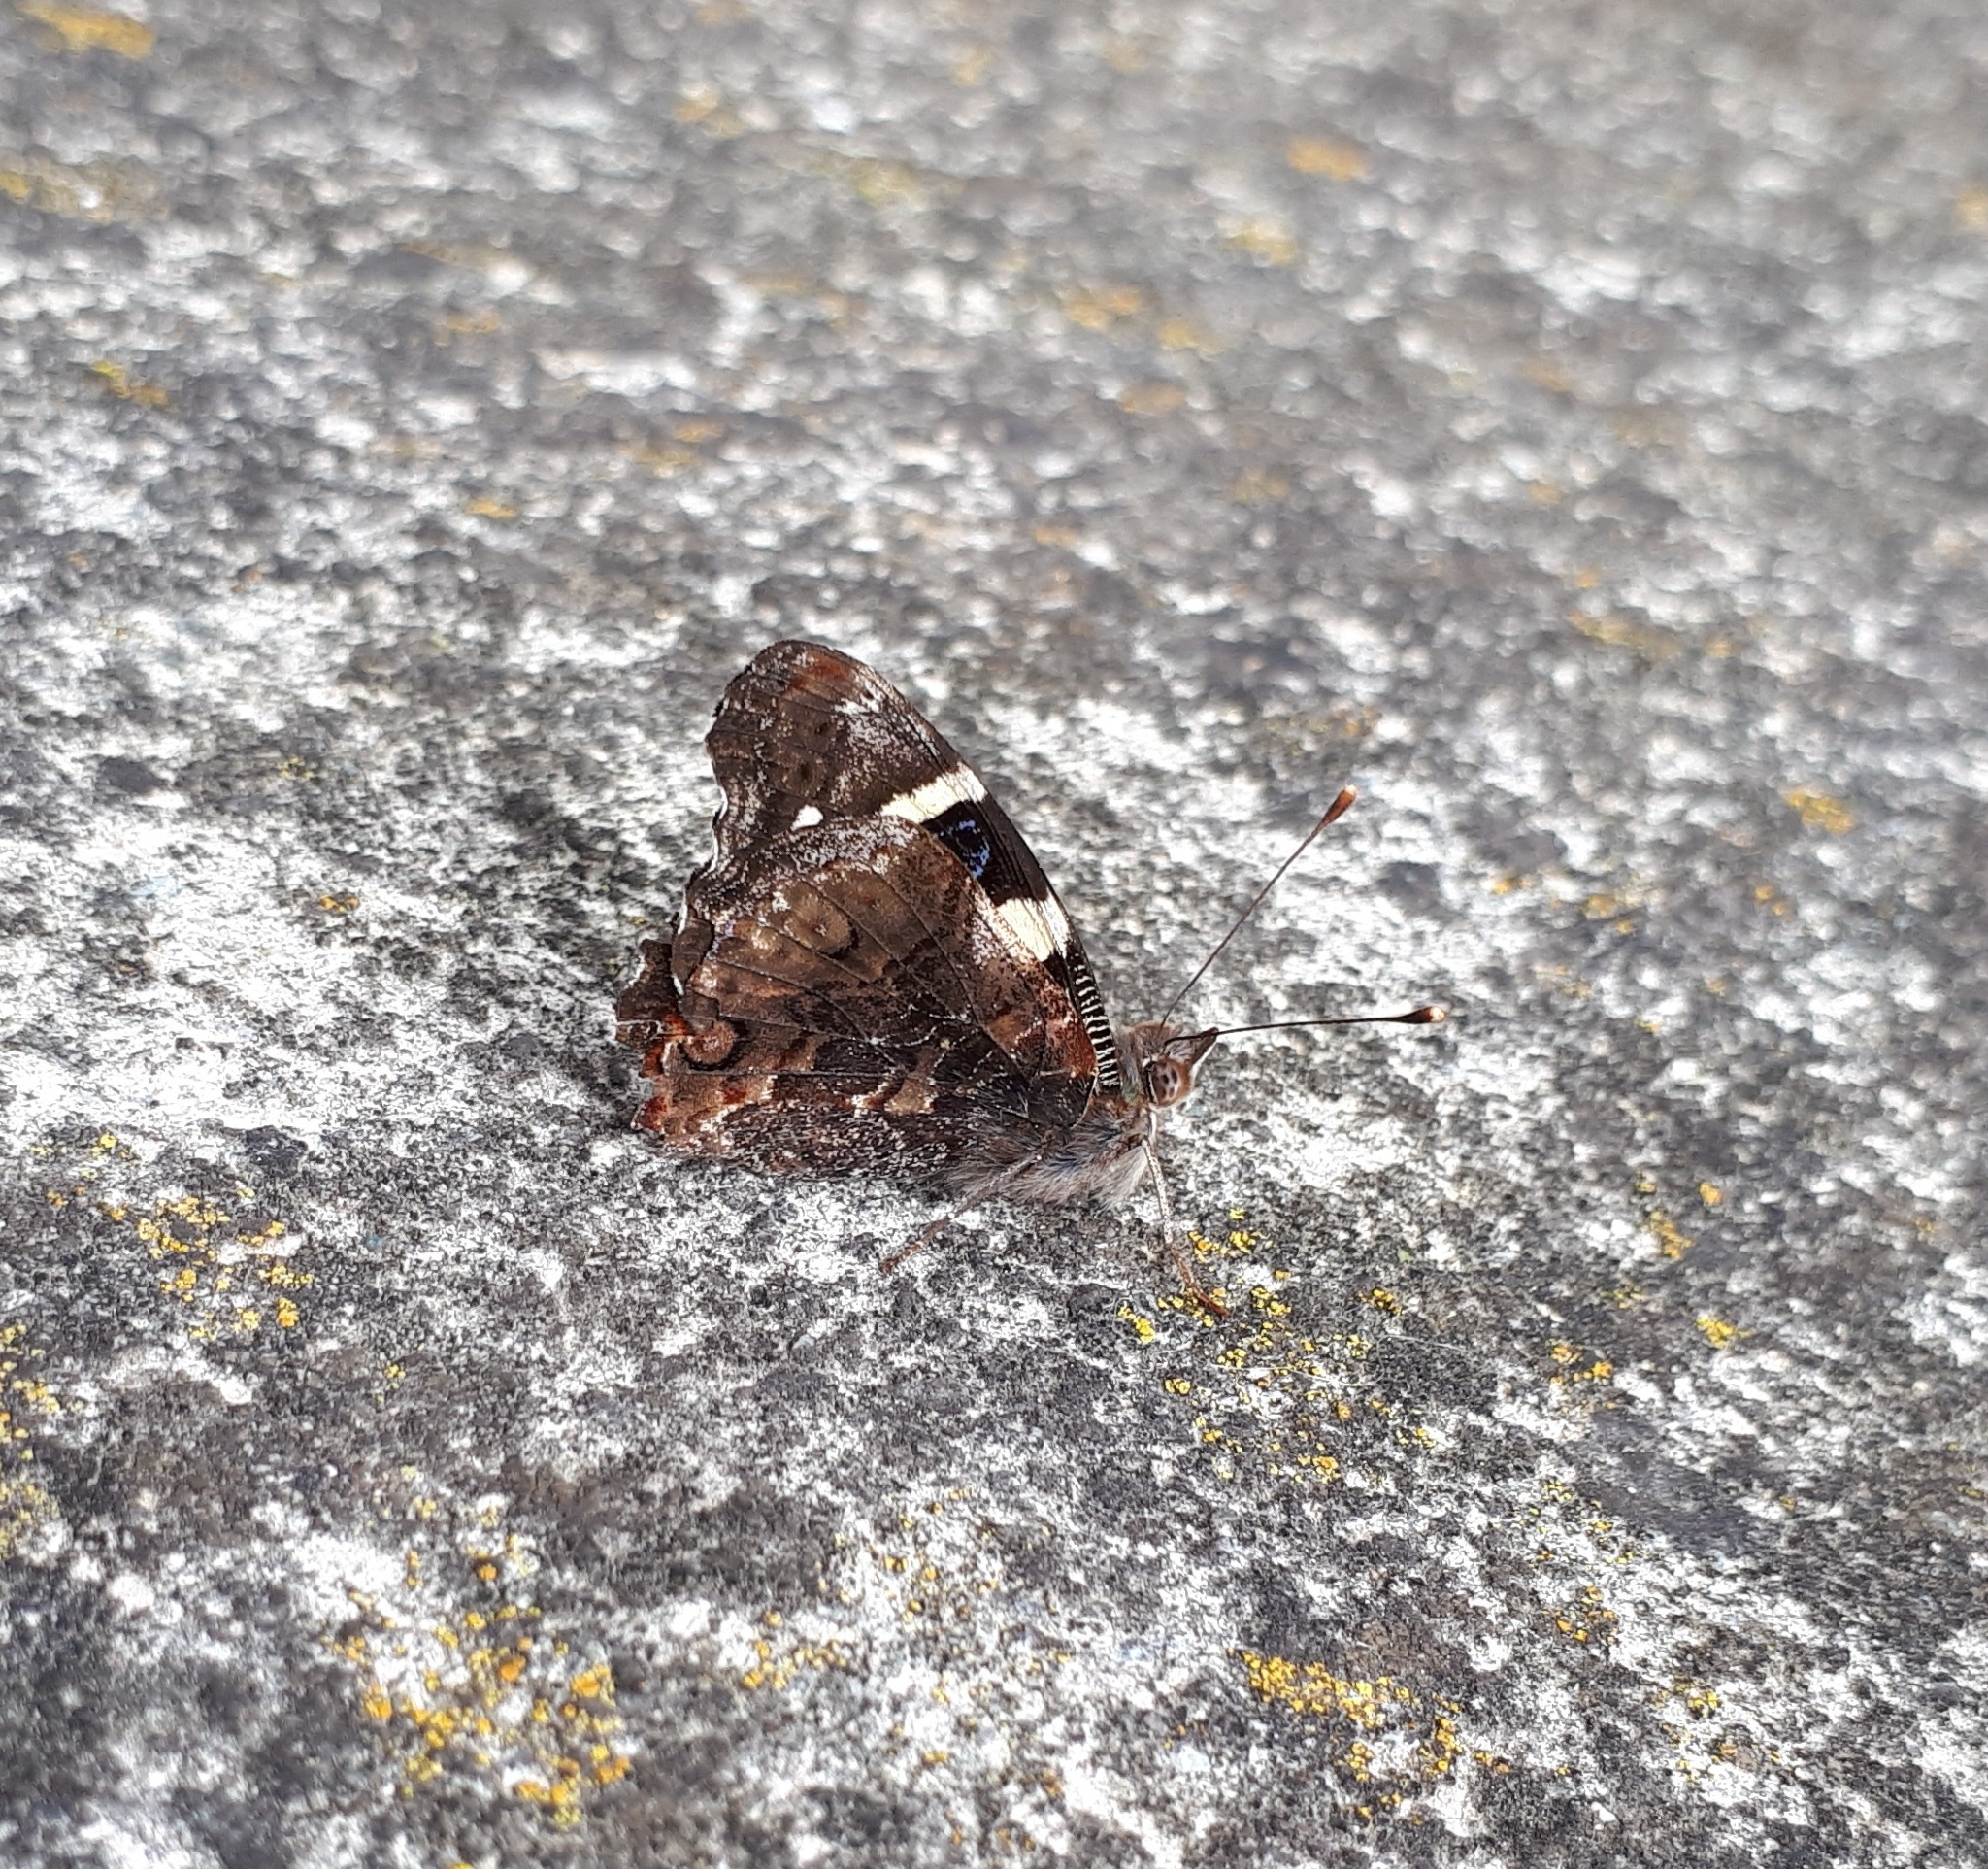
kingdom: Animalia
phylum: Arthropoda
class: Insecta
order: Lepidoptera
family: Nymphalidae
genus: Vanessa
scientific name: Vanessa itea
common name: Yellow admiral
